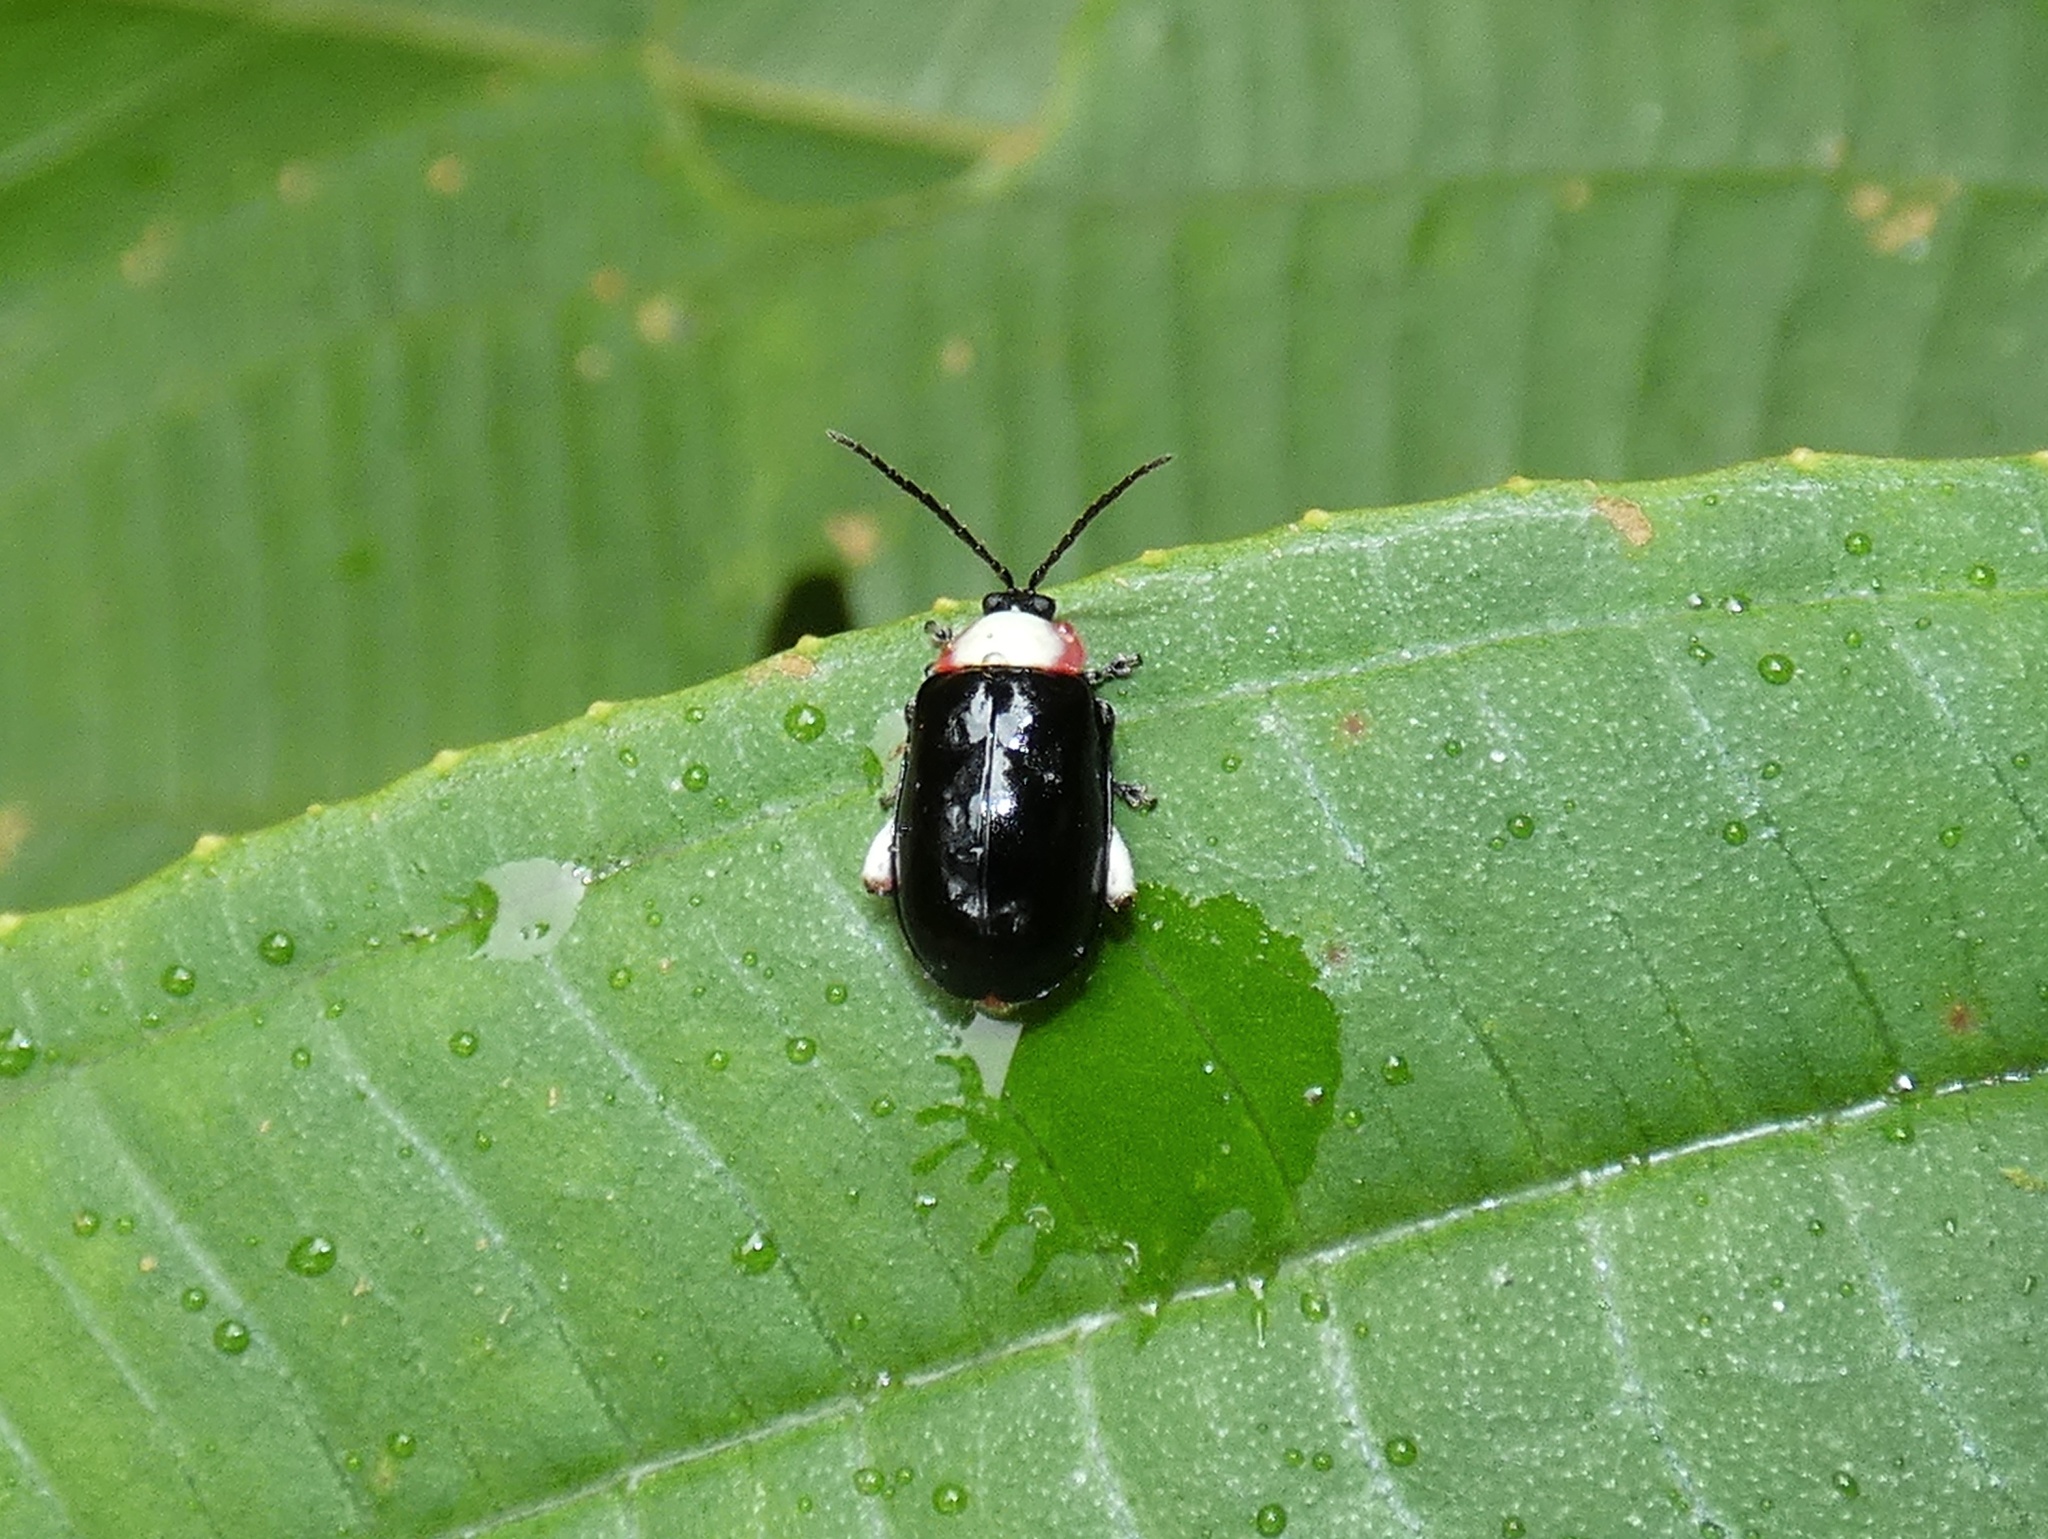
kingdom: Animalia
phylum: Arthropoda
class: Insecta
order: Coleoptera
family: Chrysomelidae
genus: Asphaera
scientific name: Asphaera
